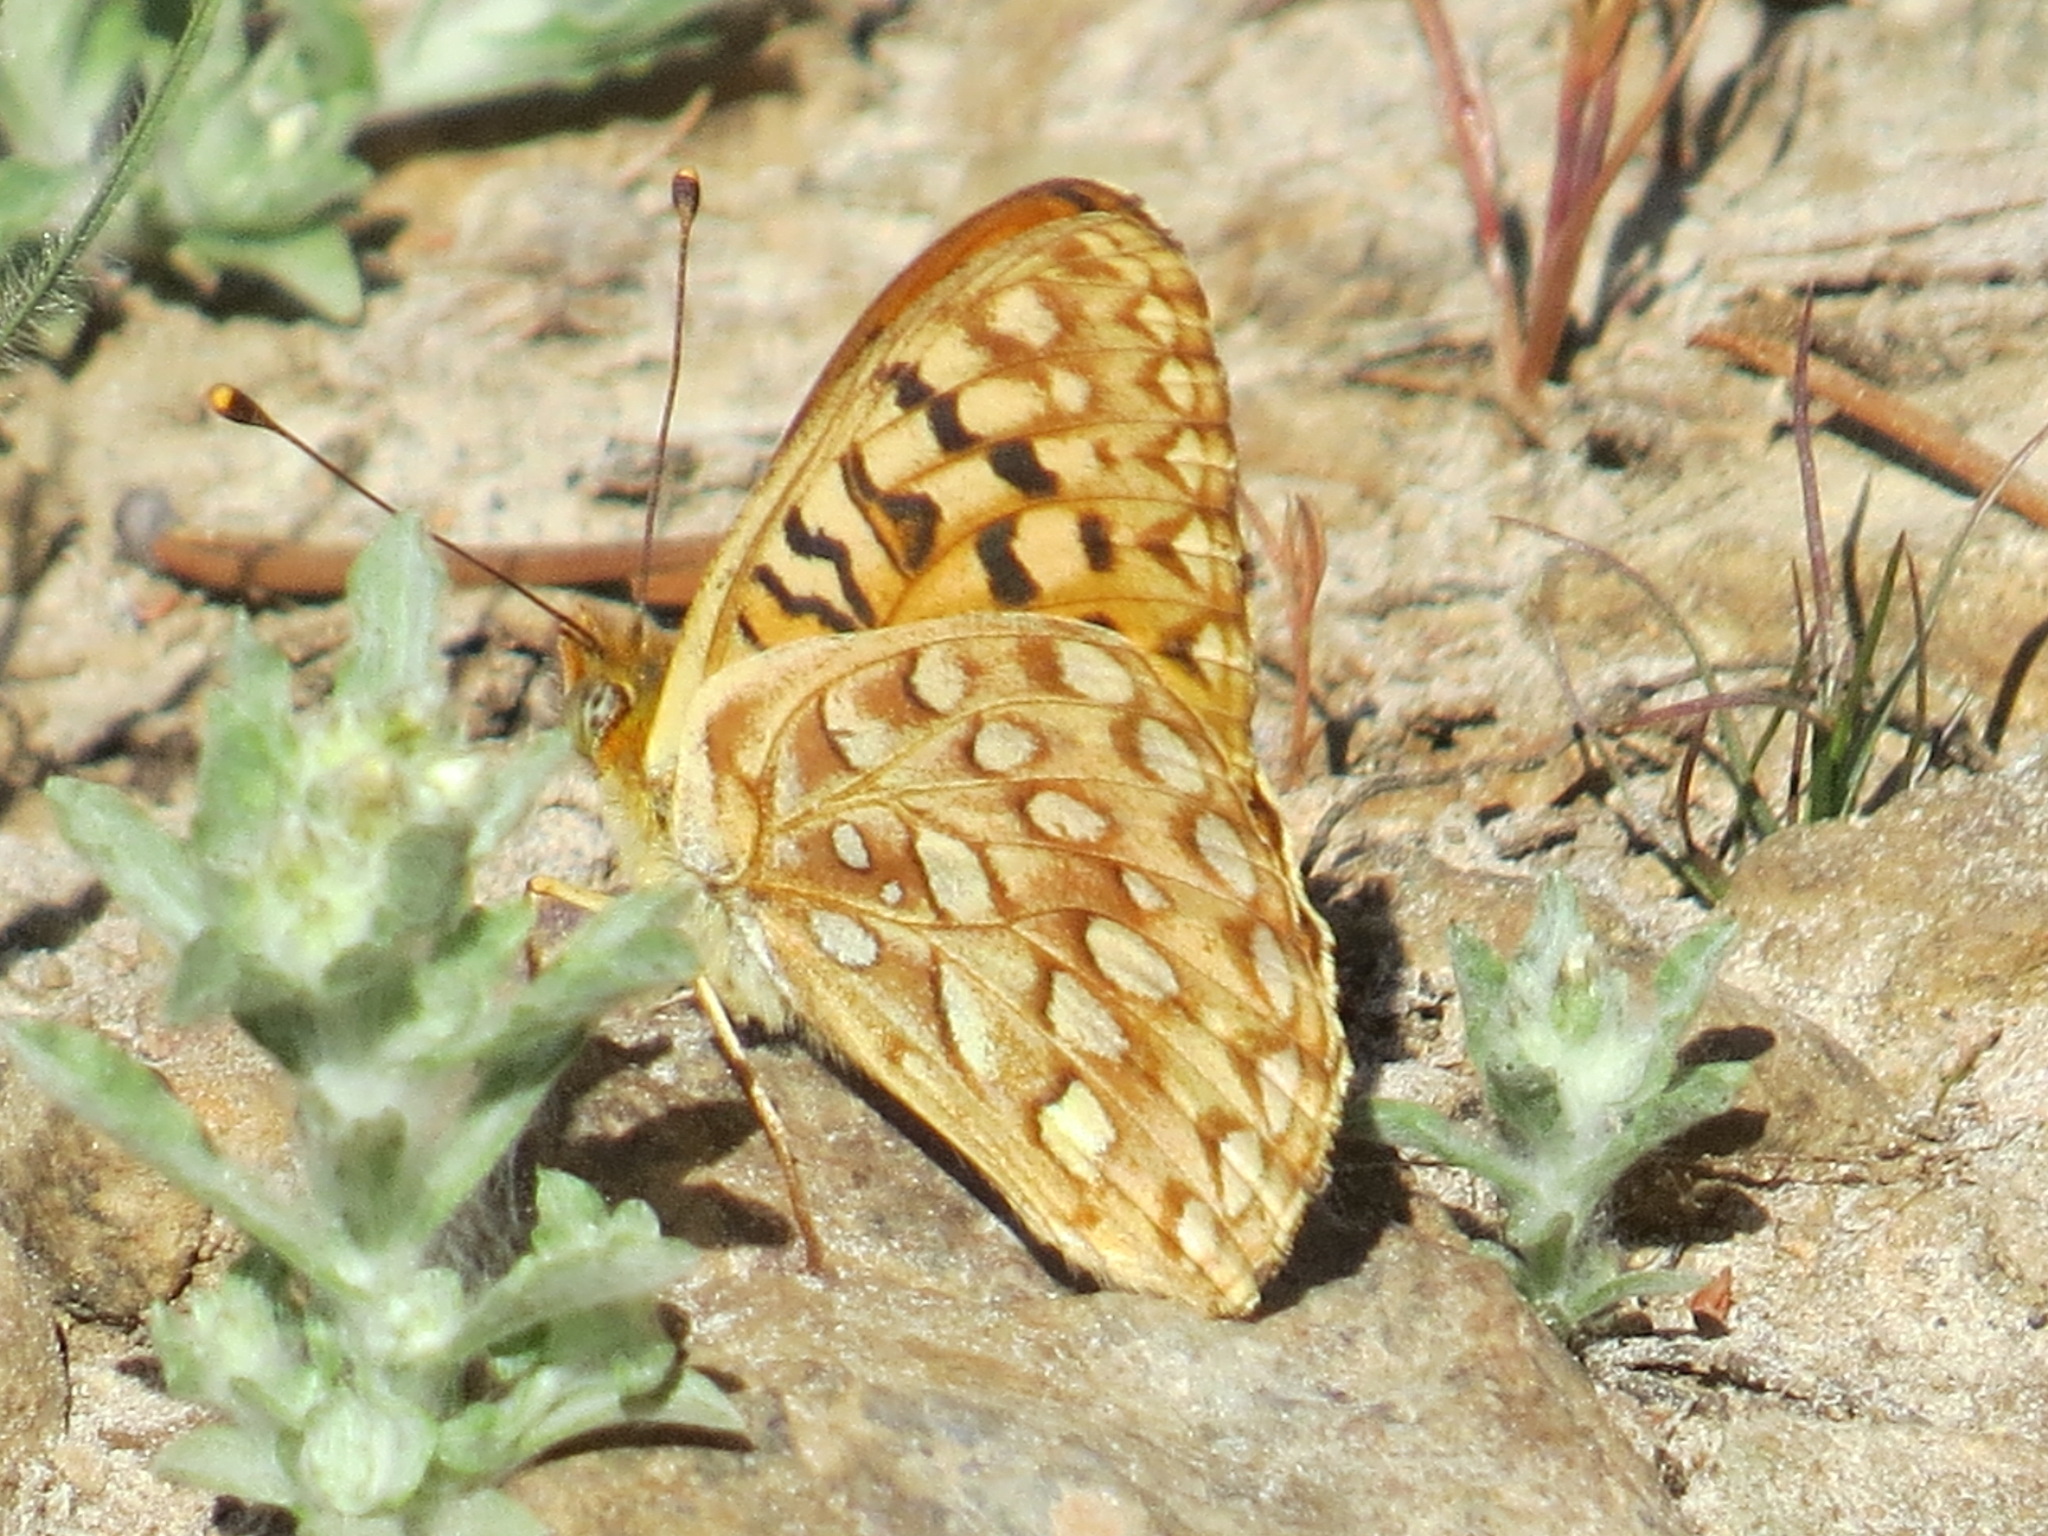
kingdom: Animalia
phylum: Arthropoda
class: Insecta
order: Lepidoptera
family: Nymphalidae
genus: Speyeria
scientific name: Speyeria egleis
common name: Great basin fritillary
